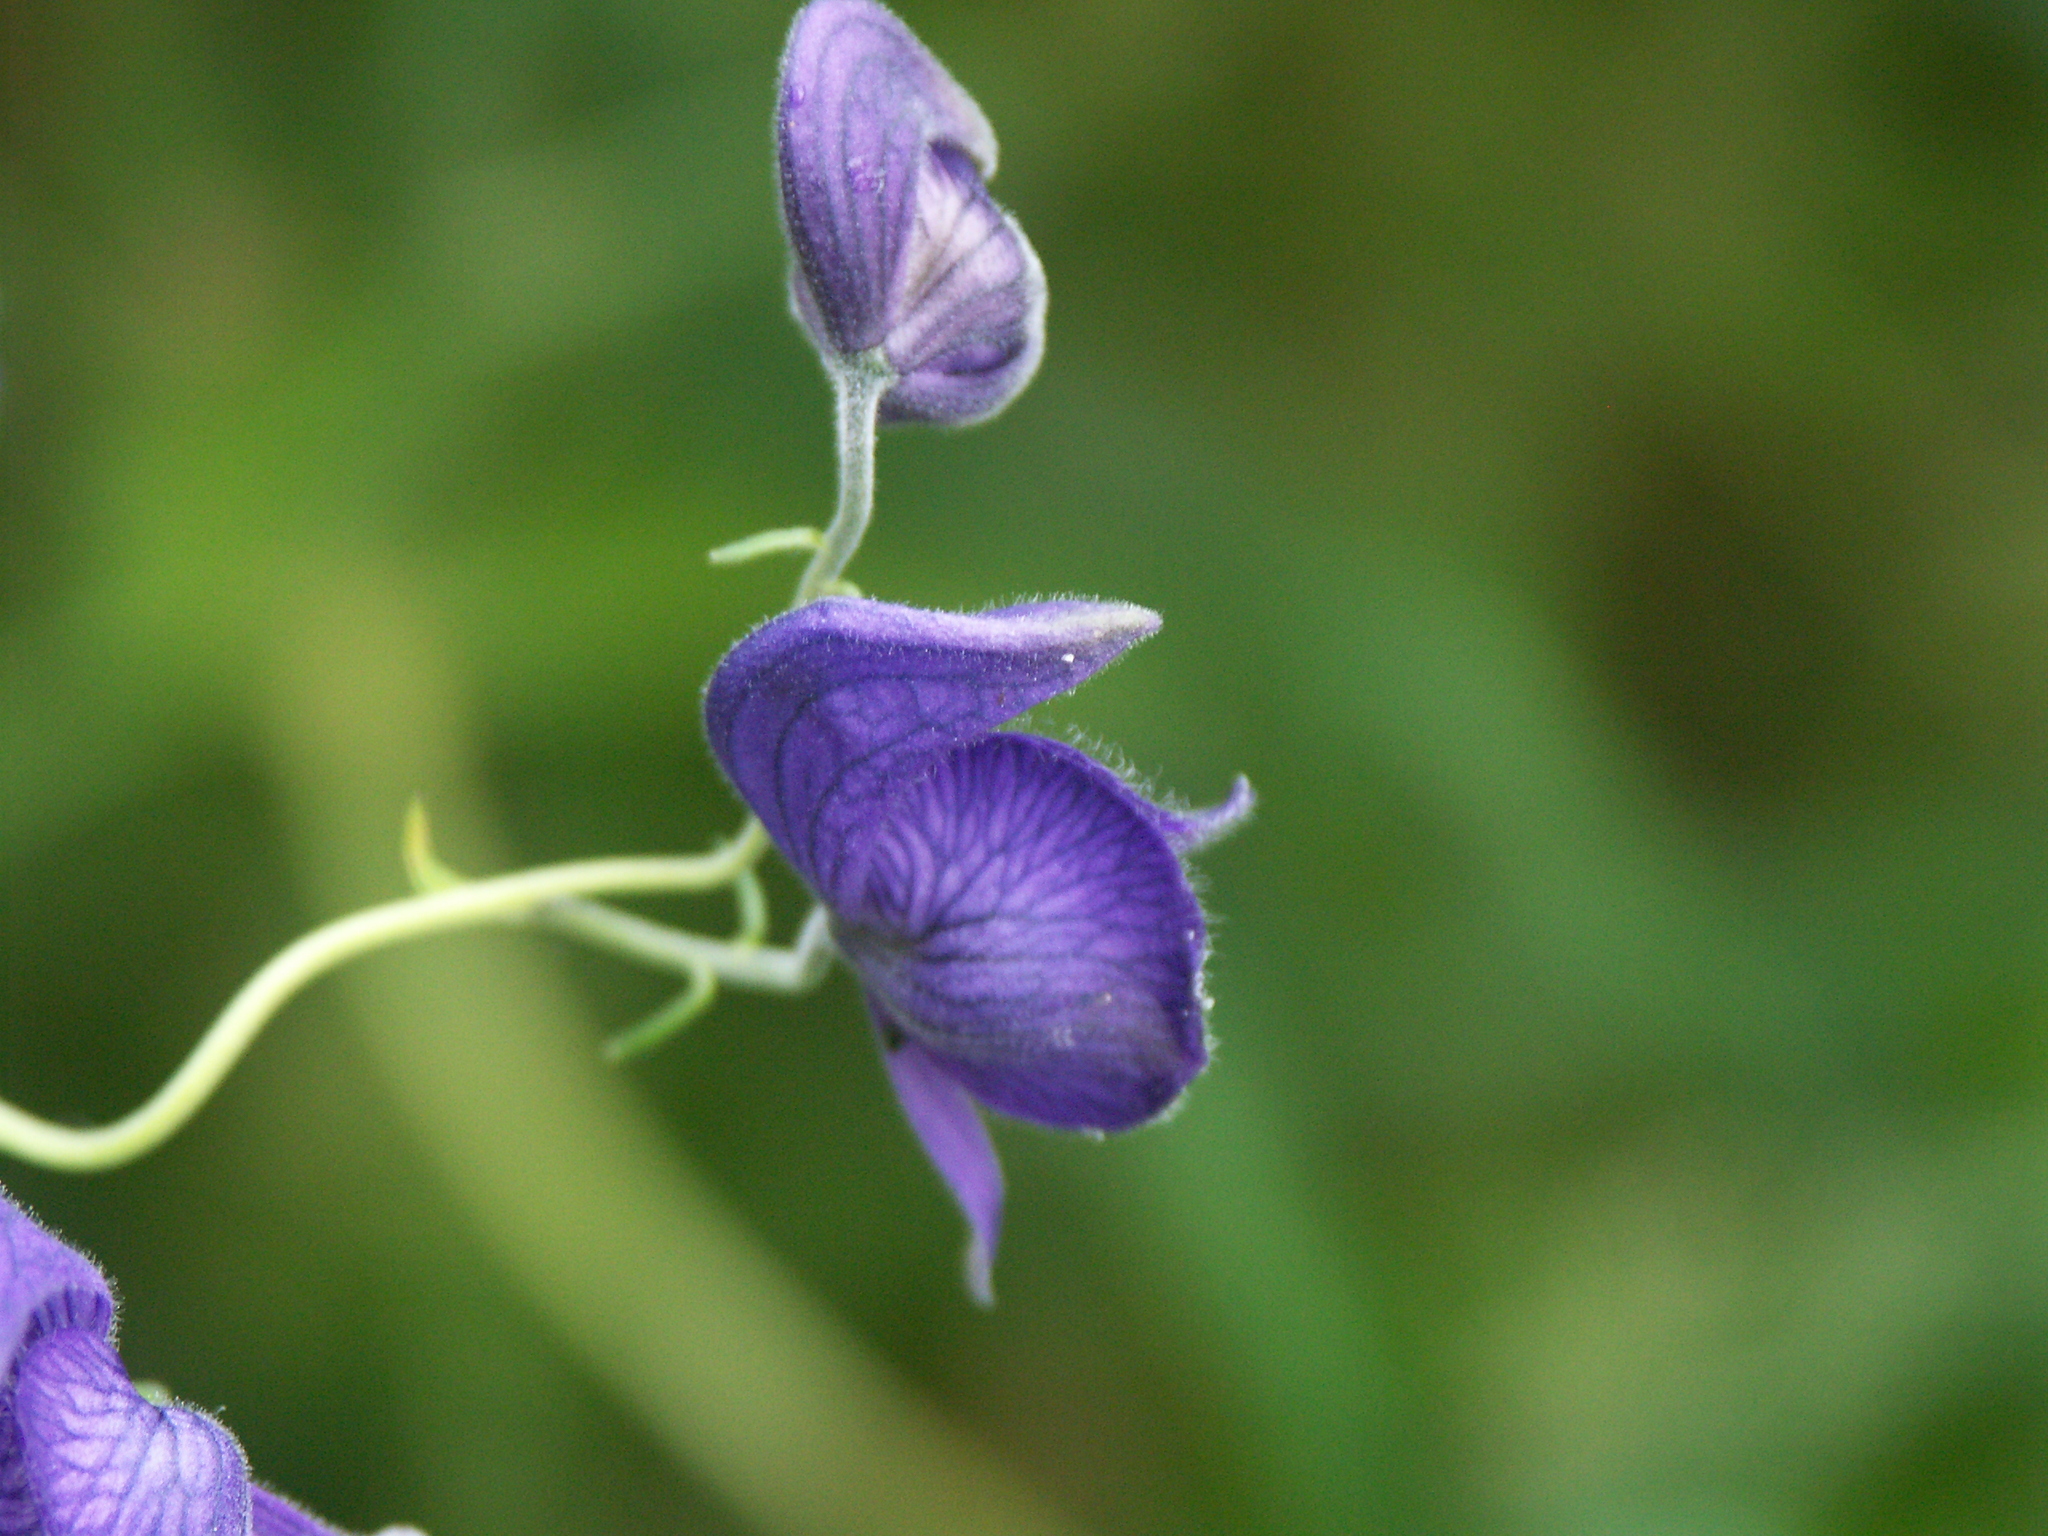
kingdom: Plantae
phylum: Tracheophyta
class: Magnoliopsida
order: Ranunculales
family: Ranunculaceae
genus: Aconitum
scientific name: Aconitum delphiniifolium
